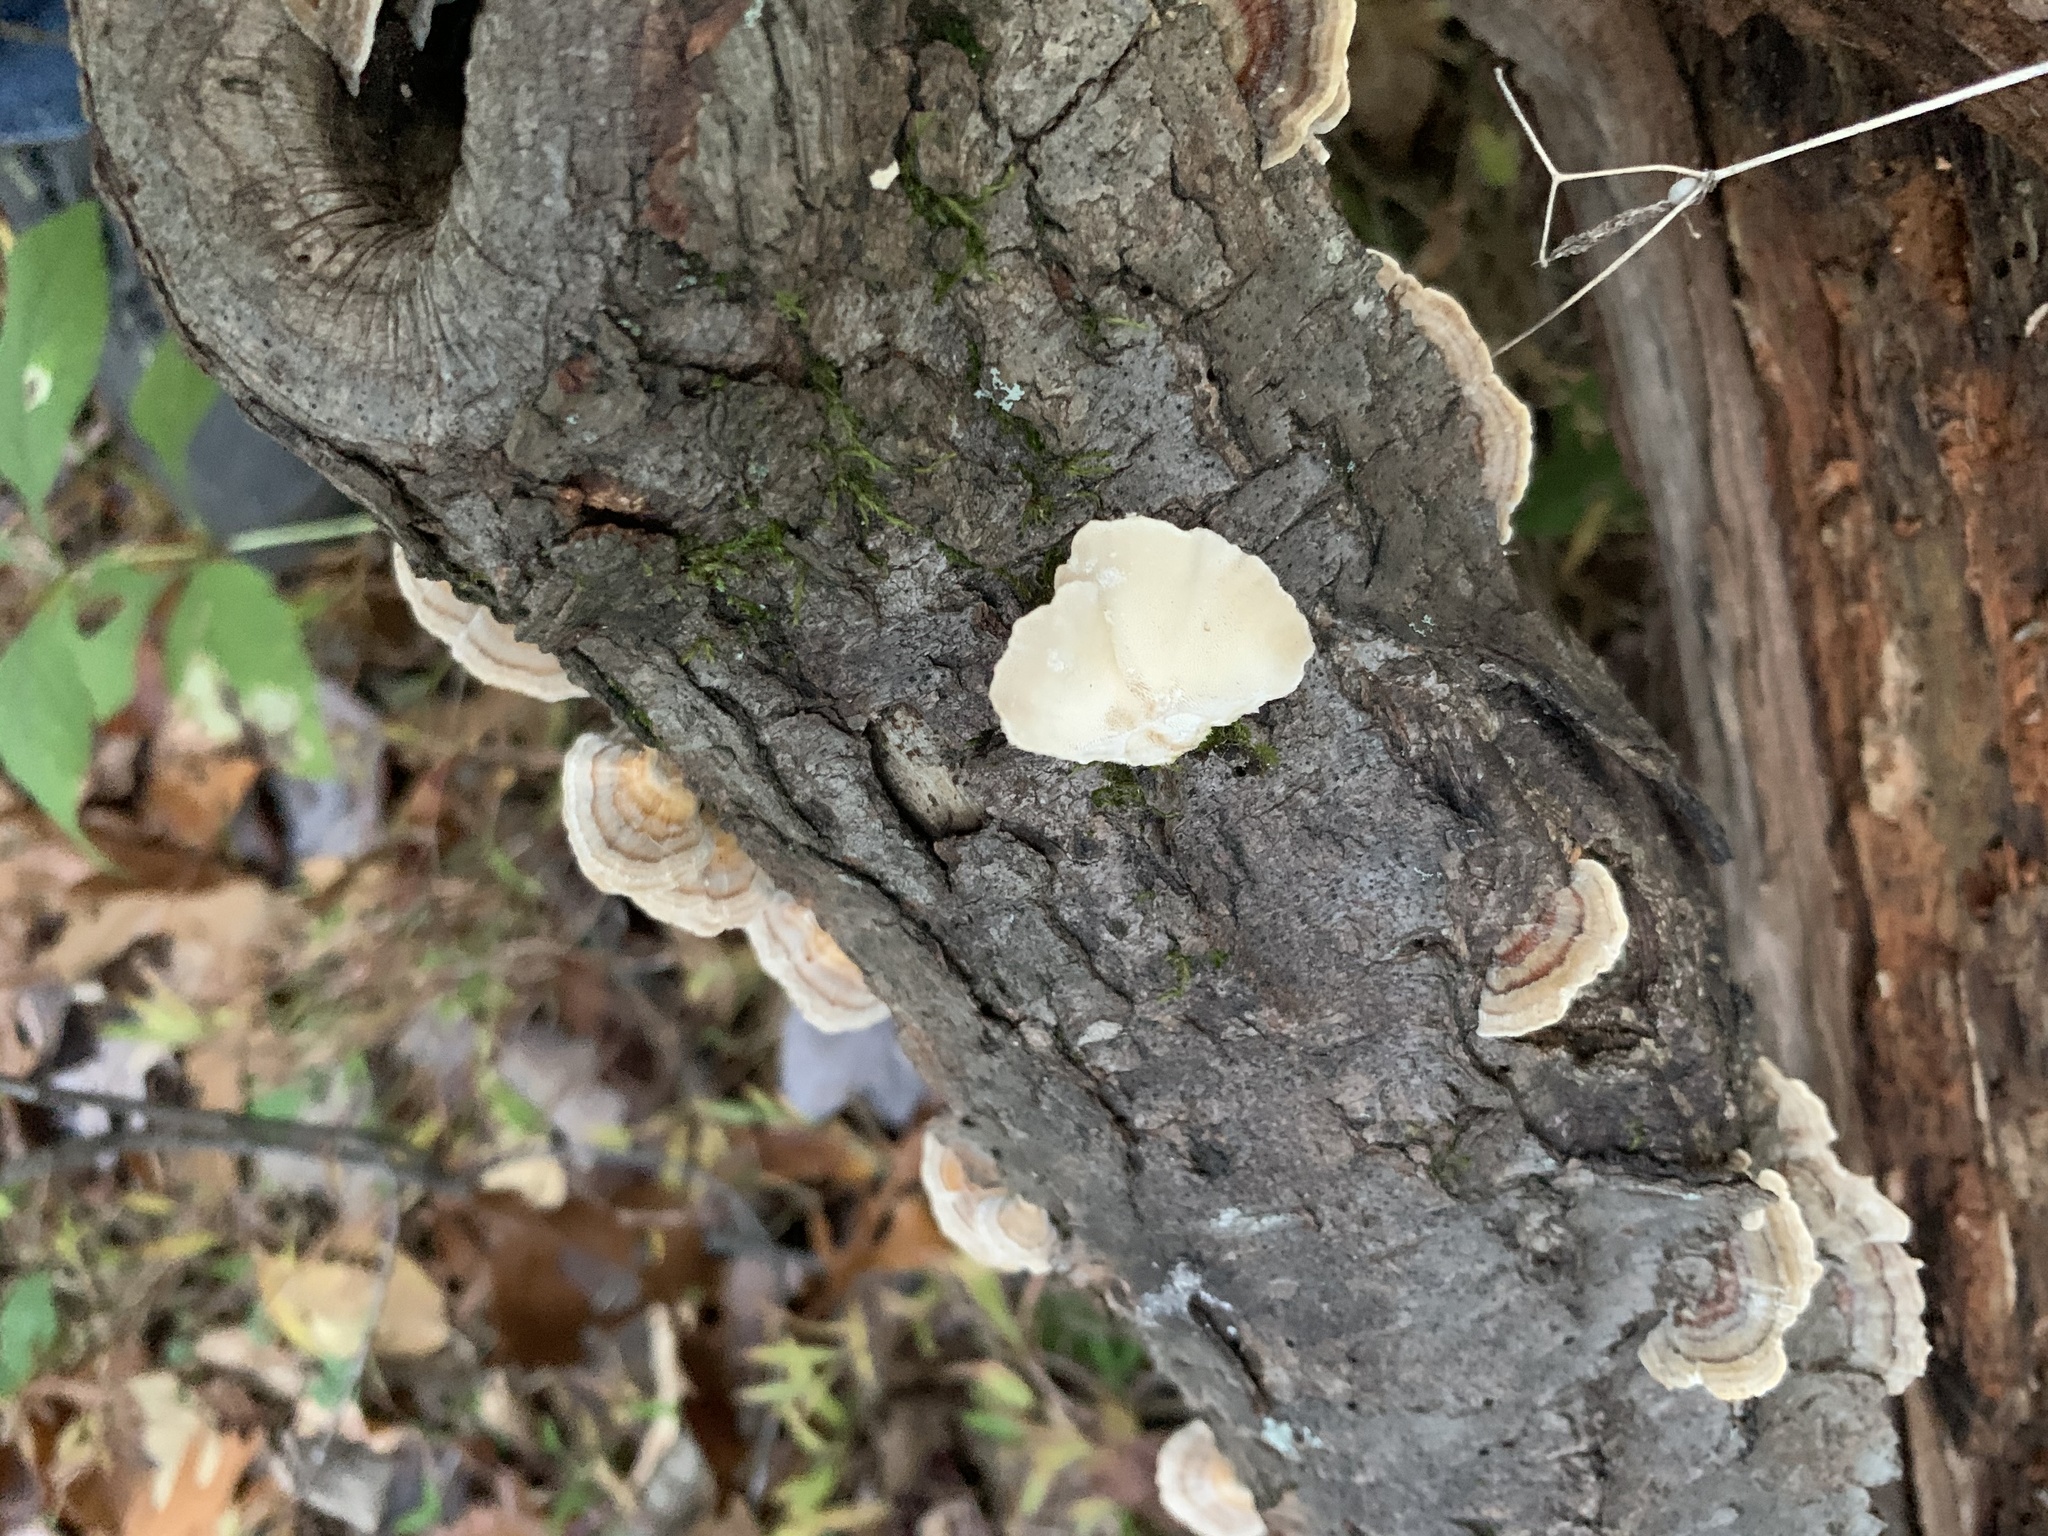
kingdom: Fungi
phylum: Basidiomycota
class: Agaricomycetes
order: Polyporales
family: Polyporaceae
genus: Trametes
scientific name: Trametes versicolor
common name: Turkeytail
